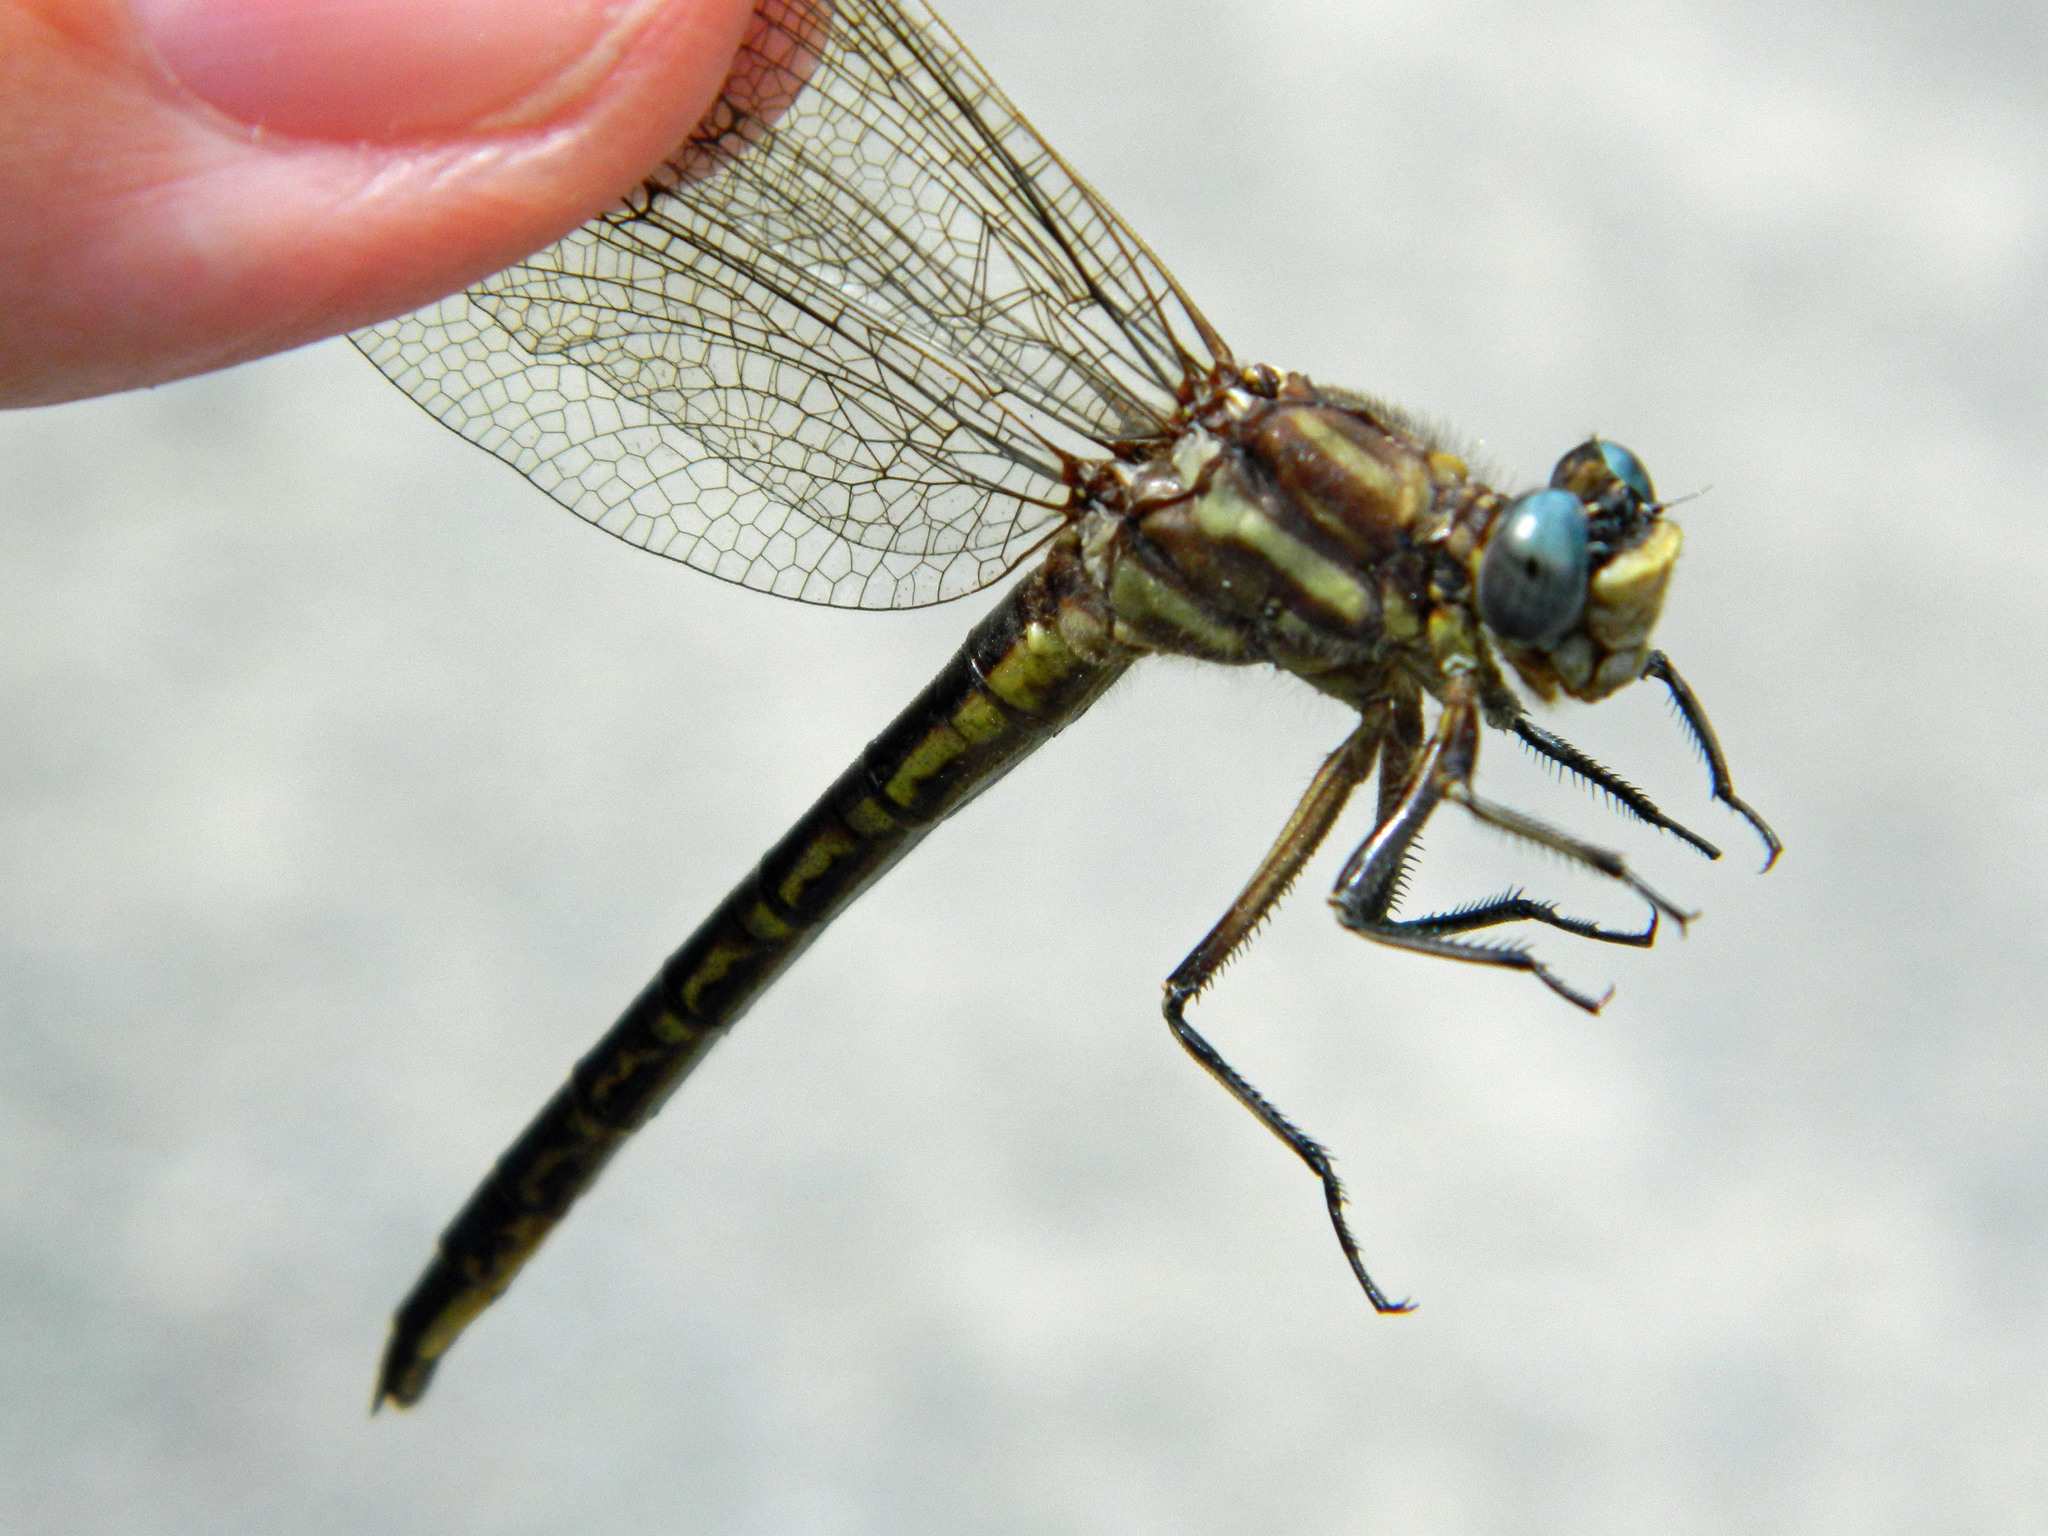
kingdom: Animalia
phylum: Arthropoda
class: Insecta
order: Odonata
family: Gomphidae
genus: Phanogomphus
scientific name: Phanogomphus spicatus
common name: Dusky clubtail
